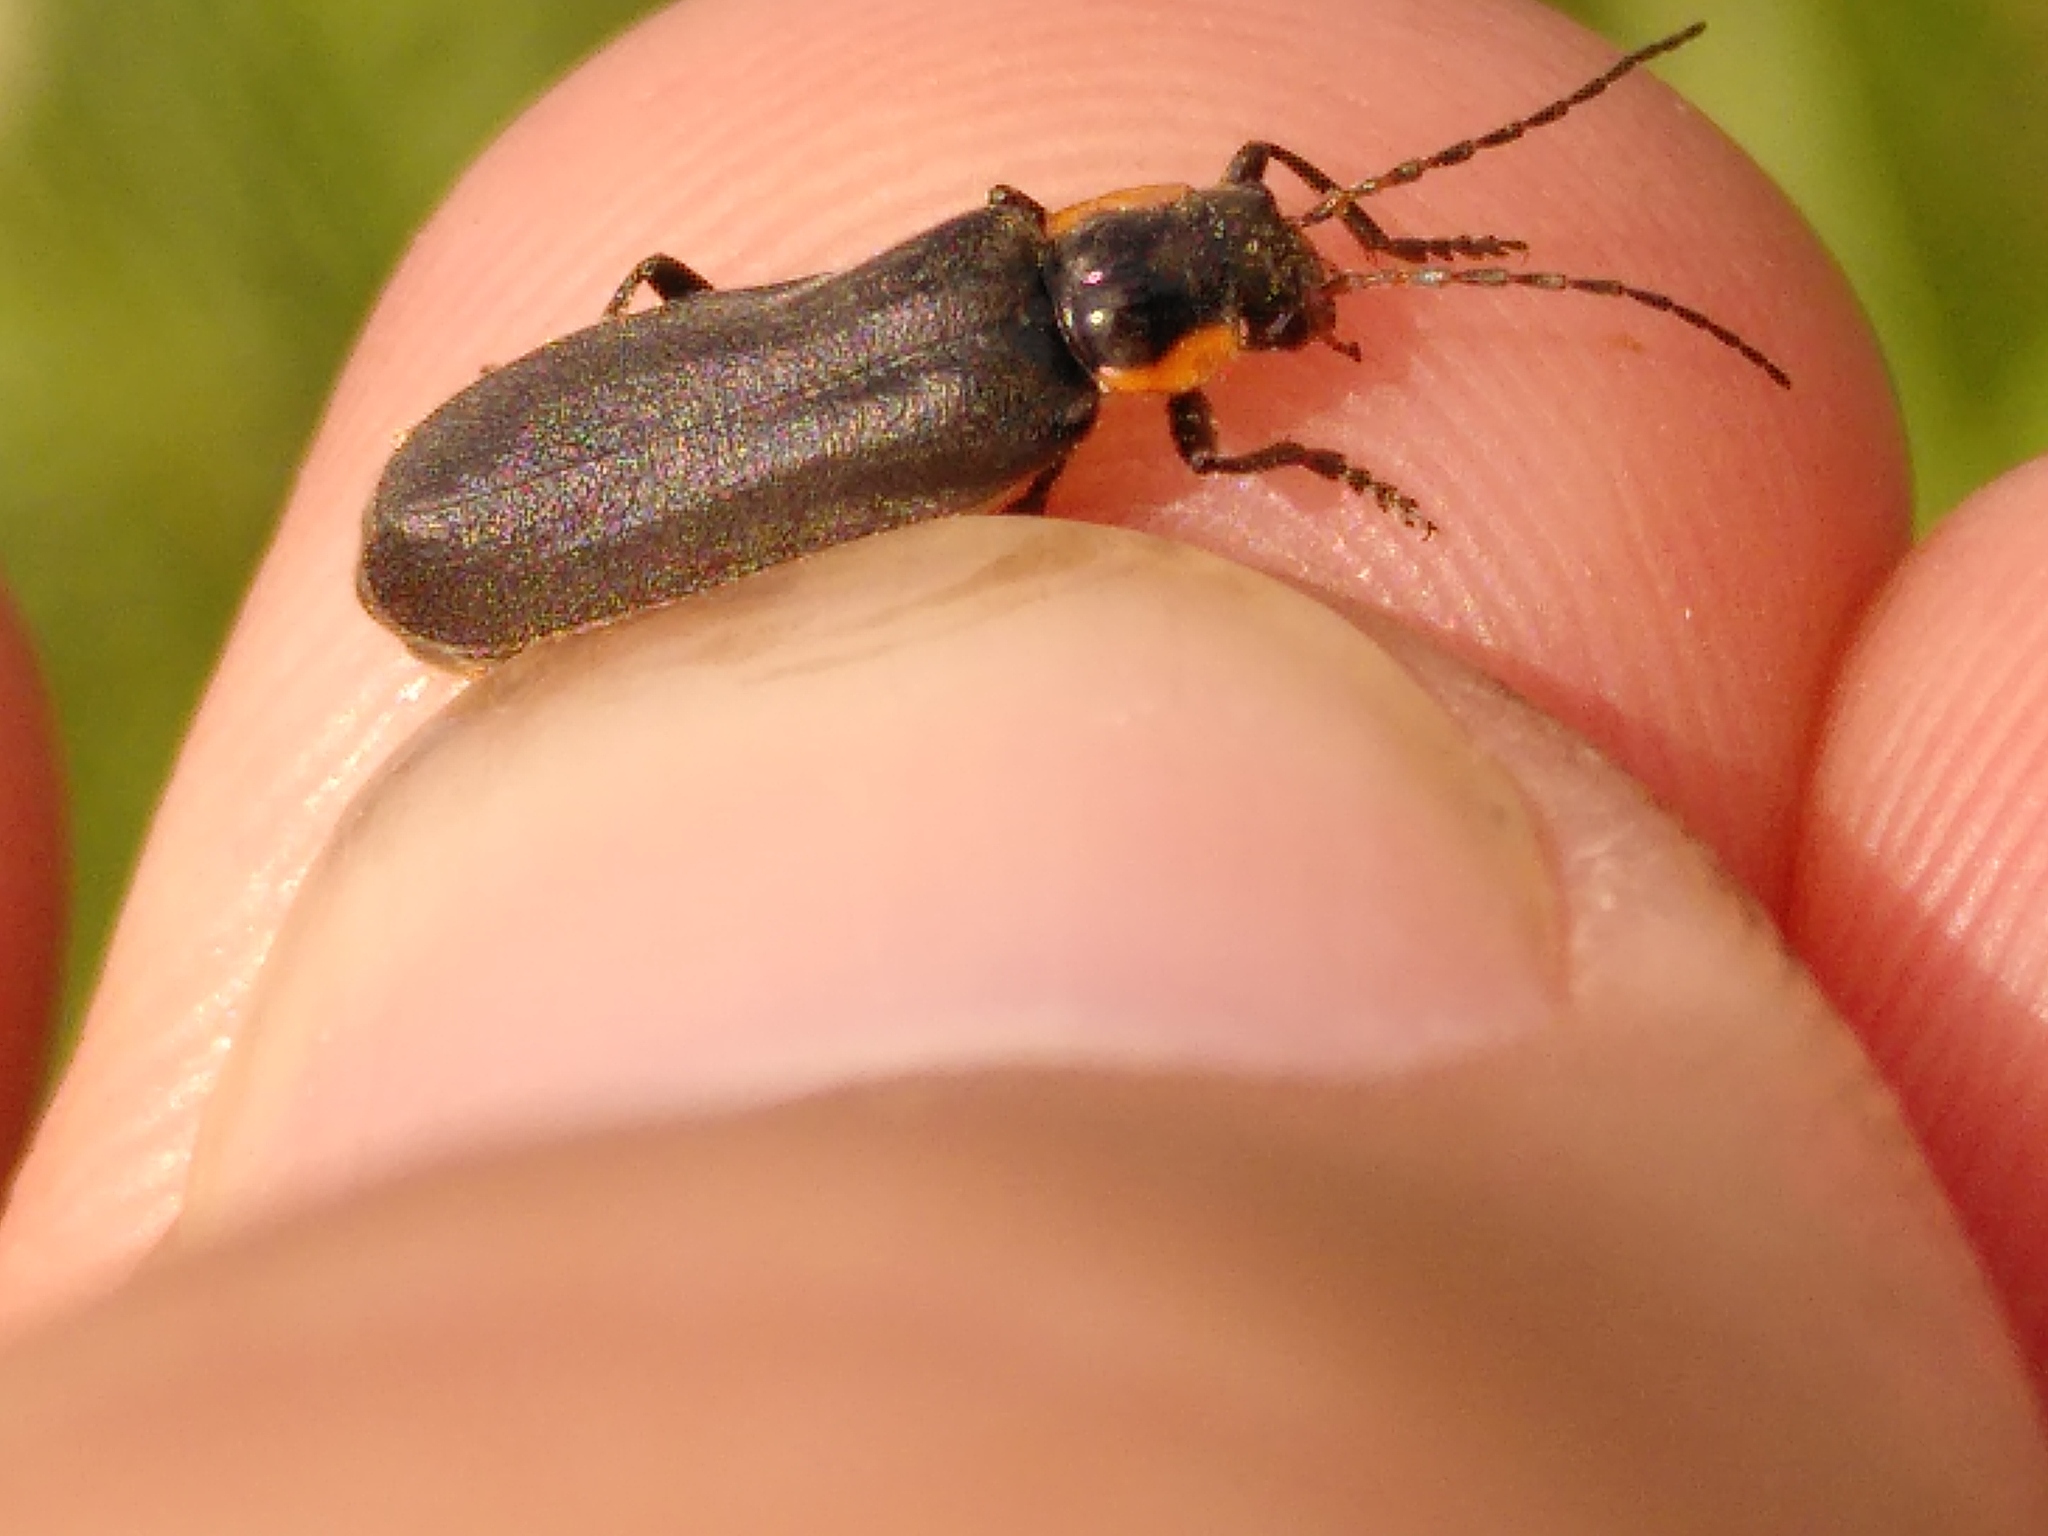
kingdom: Animalia
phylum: Arthropoda
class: Insecta
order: Coleoptera
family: Cantharidae
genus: Cantharis
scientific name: Cantharis obscura
